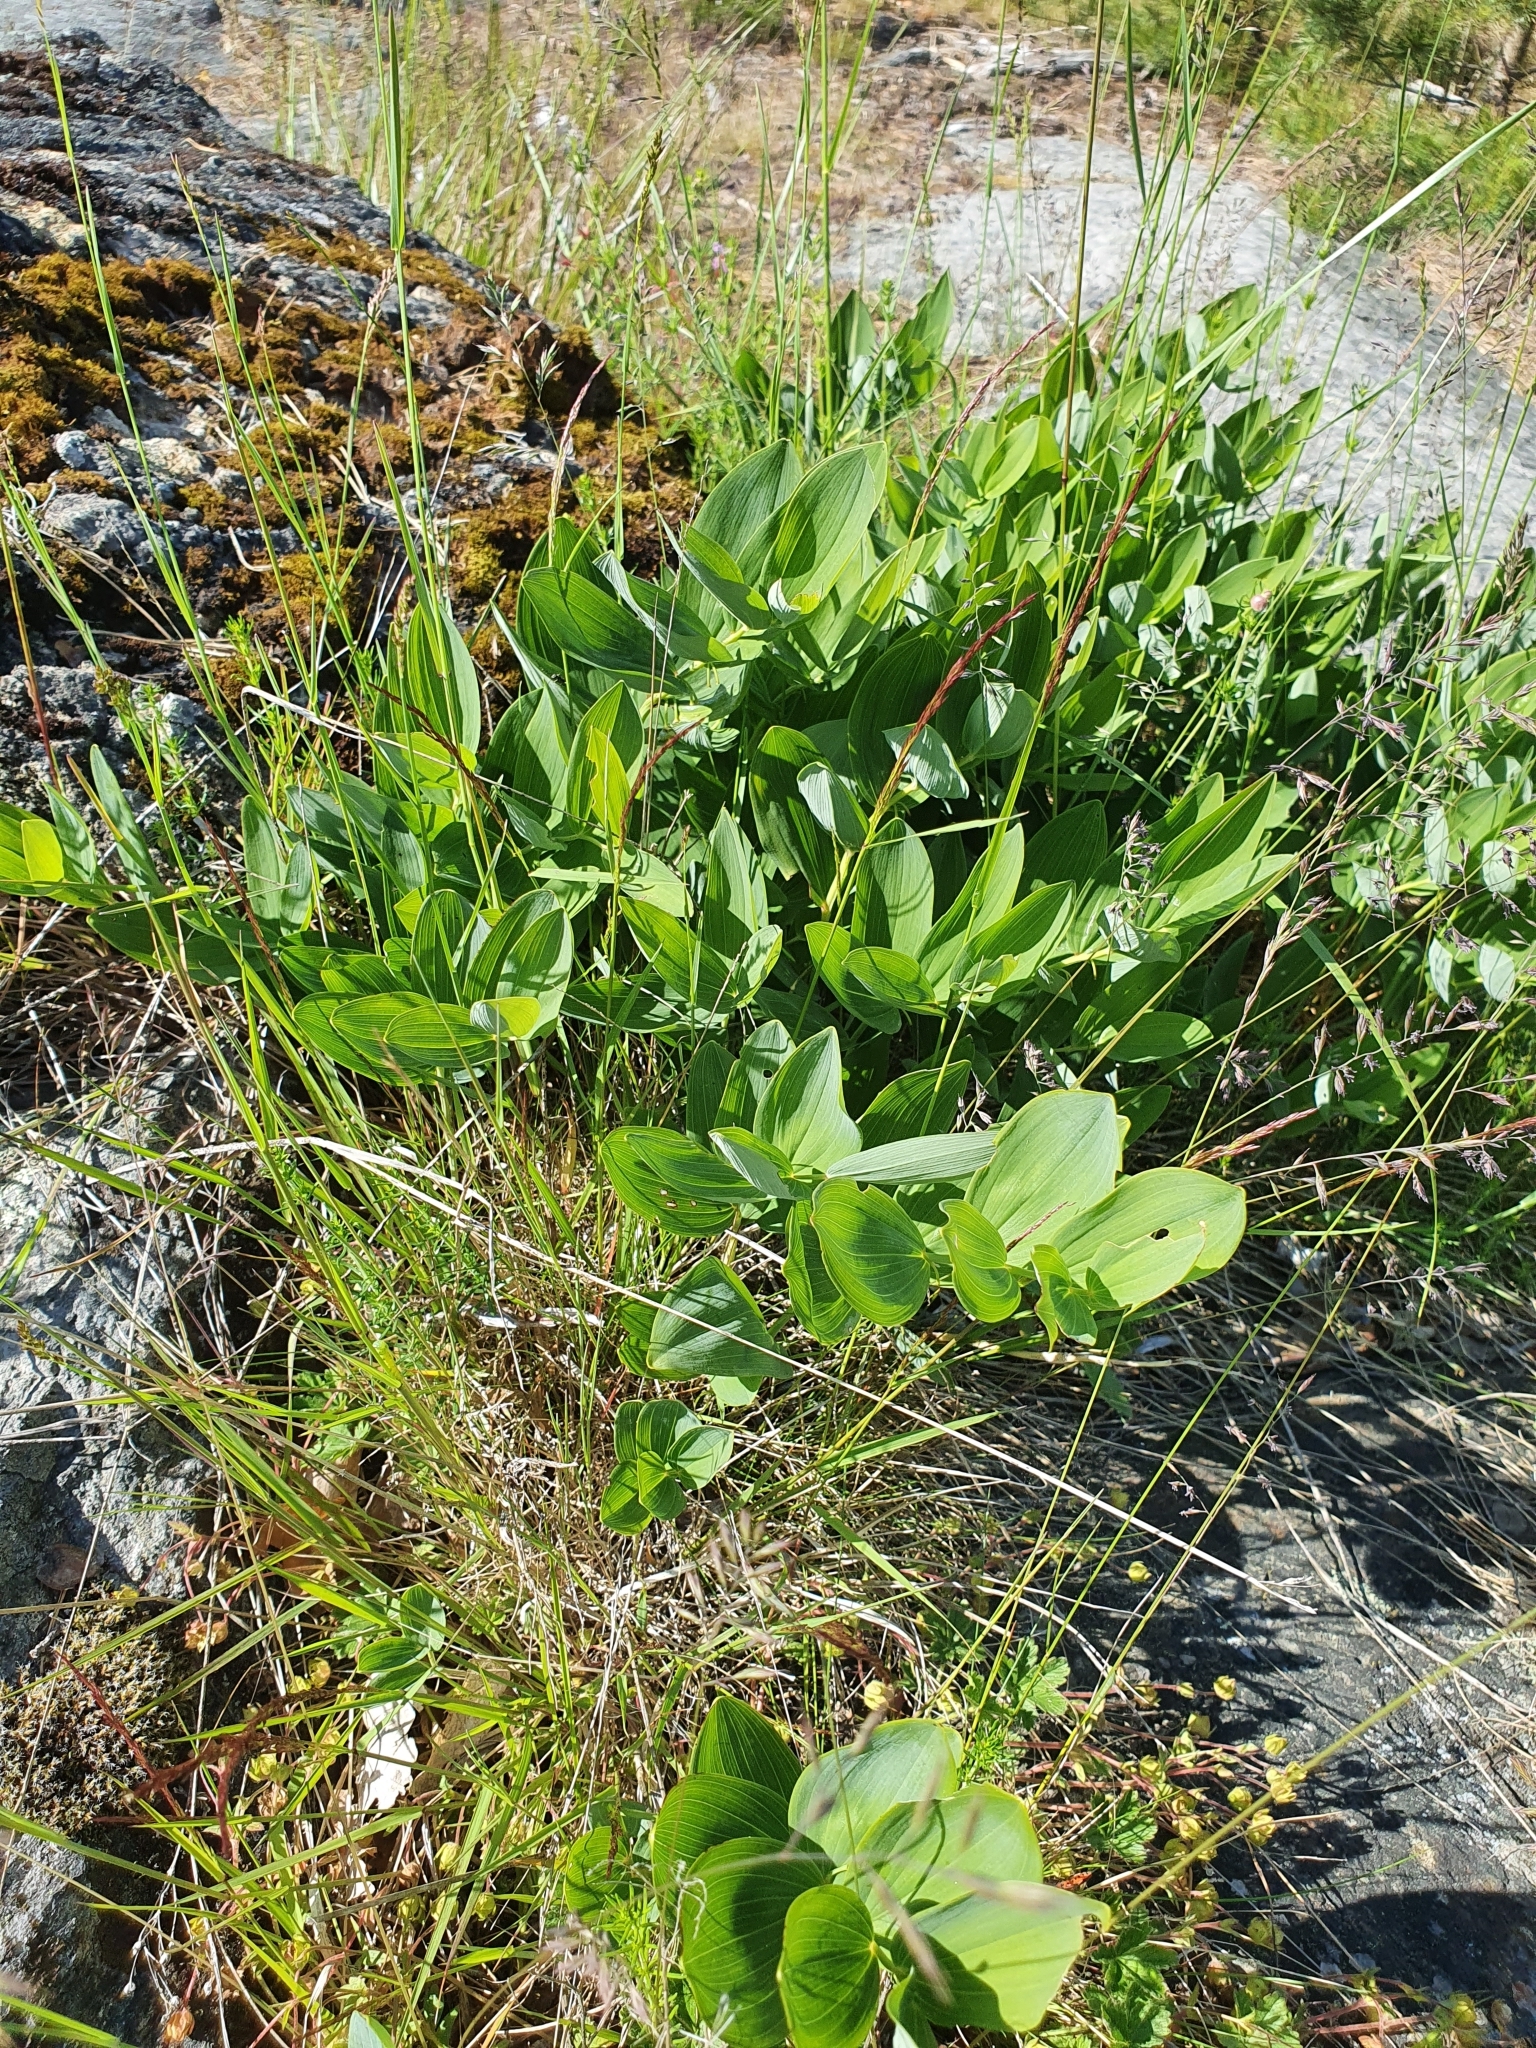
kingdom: Plantae
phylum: Tracheophyta
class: Liliopsida
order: Asparagales
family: Asparagaceae
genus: Polygonatum
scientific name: Polygonatum odoratum
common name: Angular solomon's-seal
